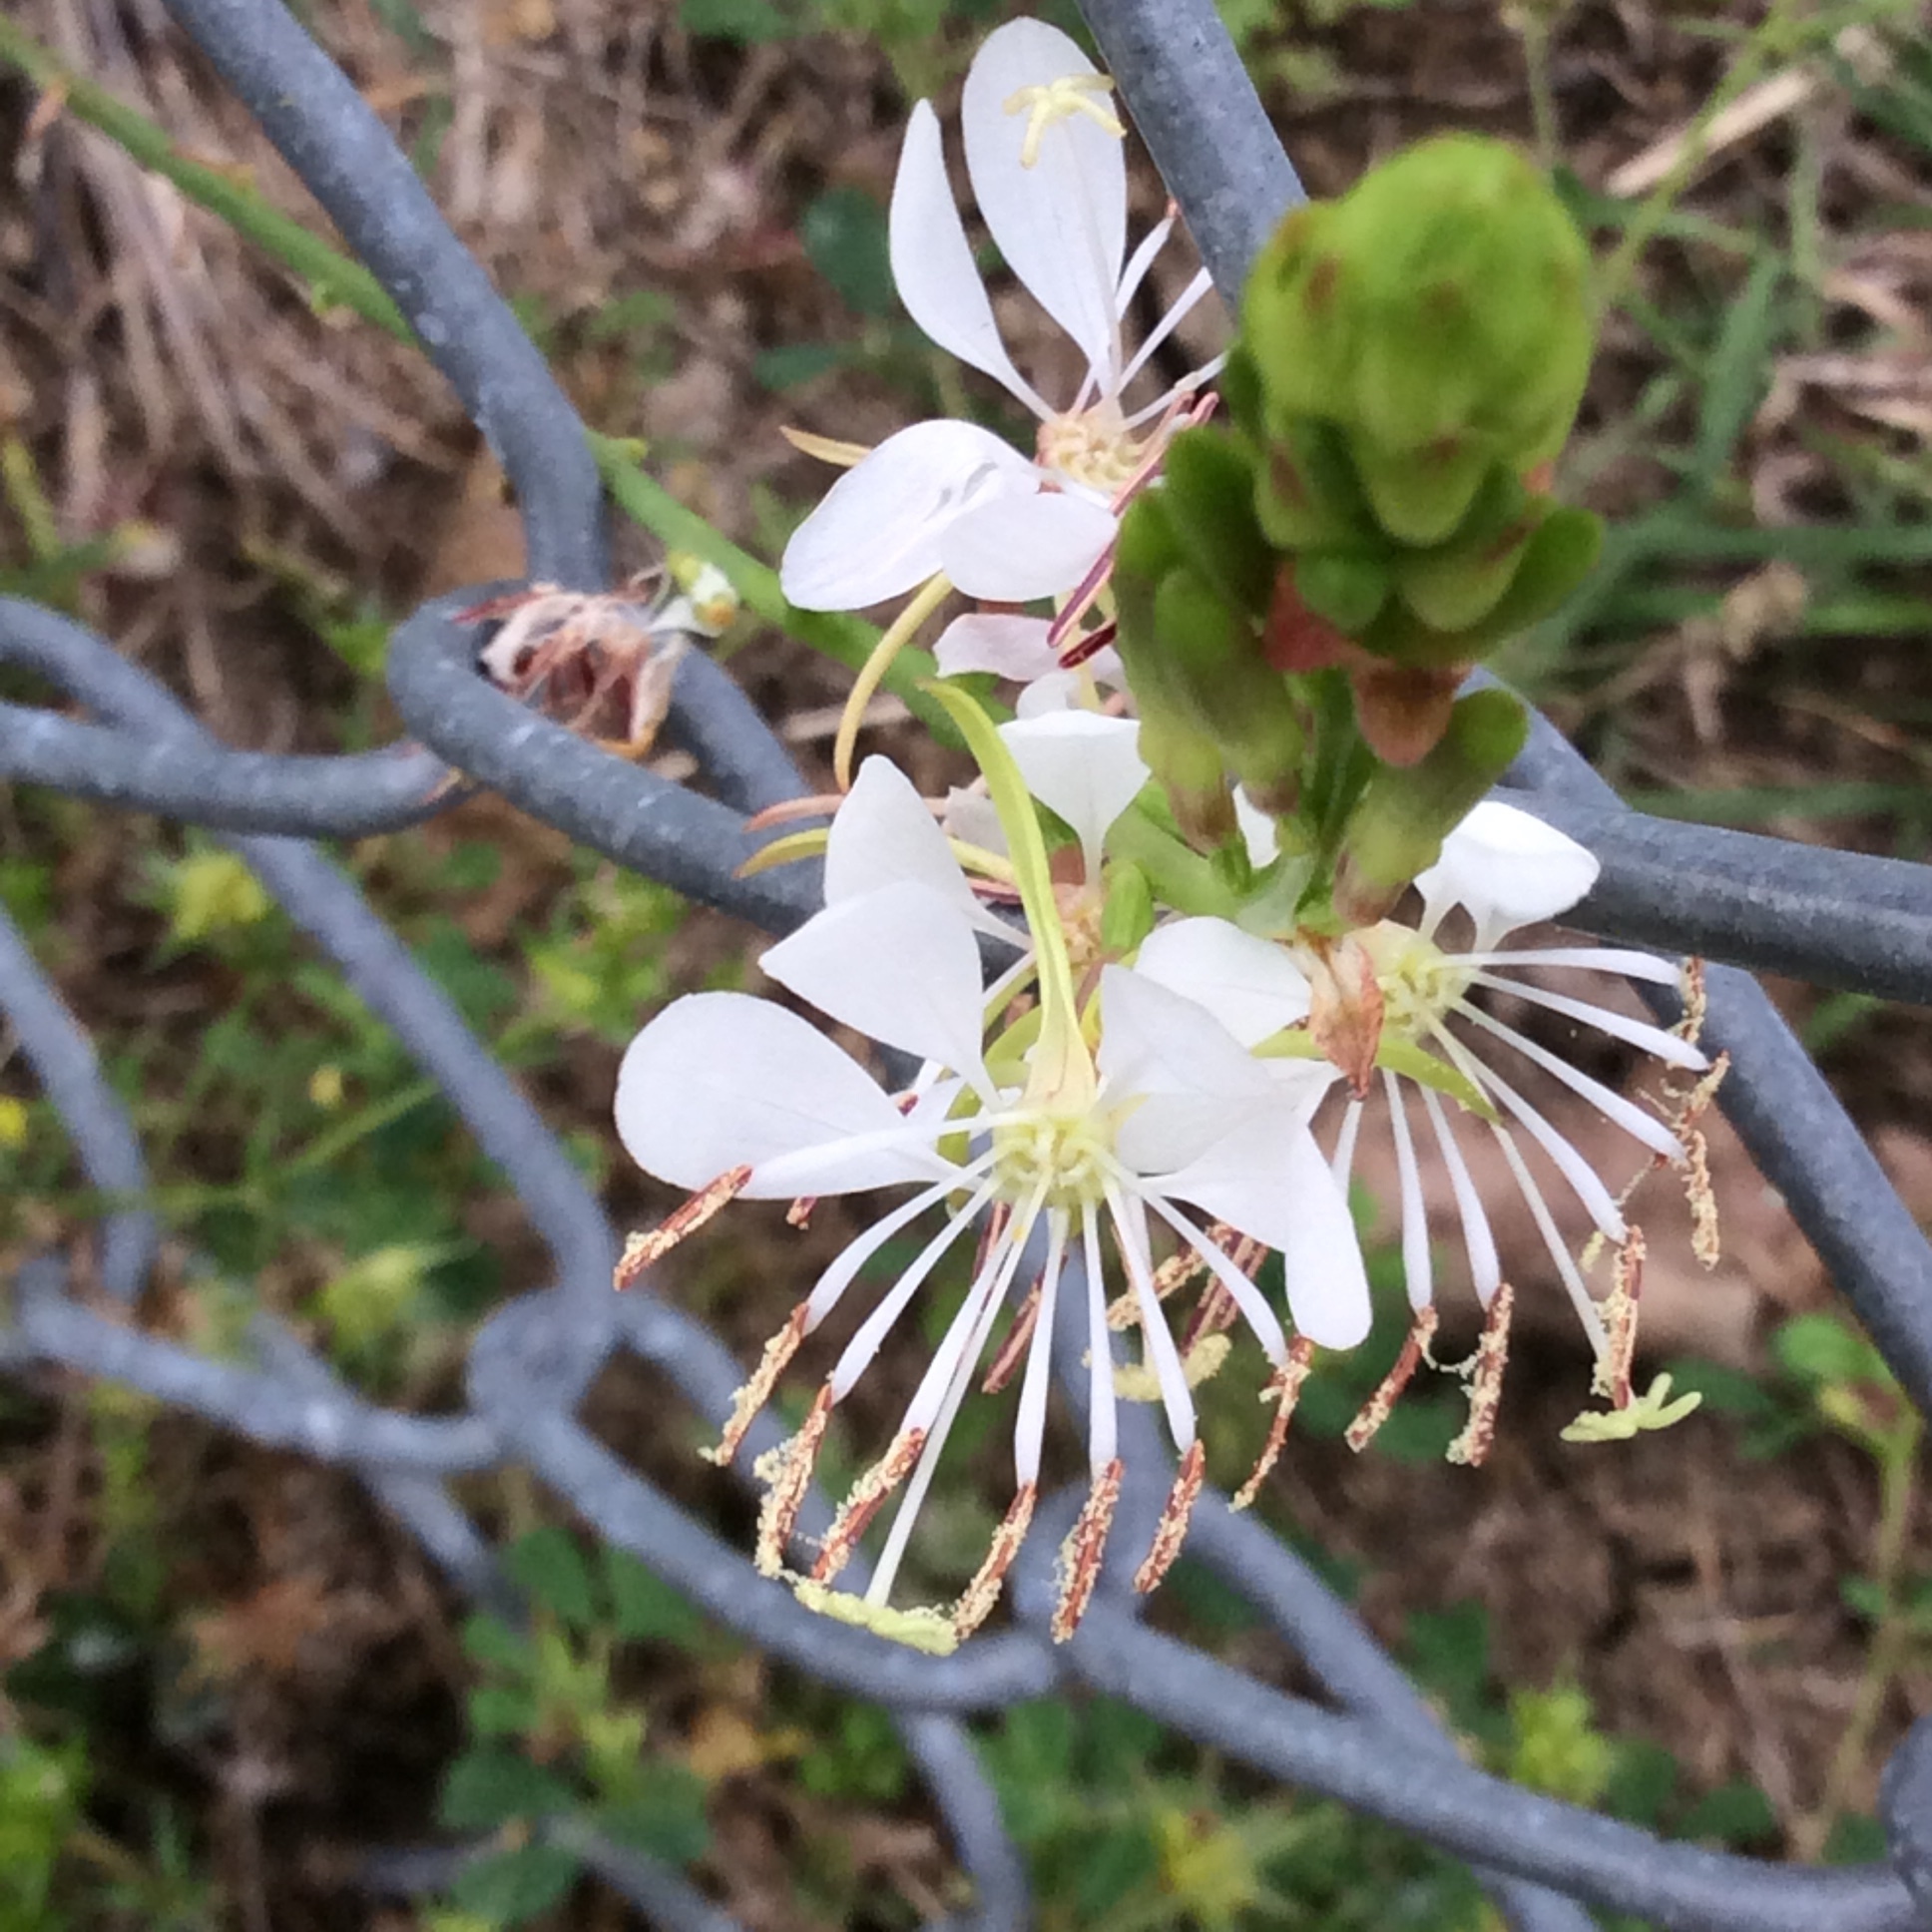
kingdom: Plantae
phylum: Tracheophyta
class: Magnoliopsida
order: Myrtales
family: Onagraceae
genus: Oenothera
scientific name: Oenothera suffulta
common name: Kisses
